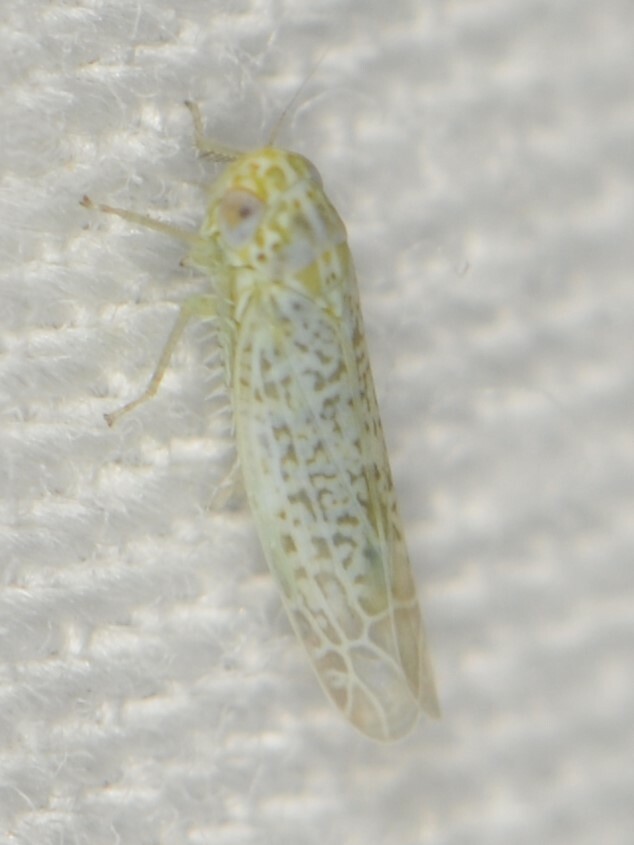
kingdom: Animalia
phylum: Arthropoda
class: Insecta
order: Hemiptera
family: Cicadellidae
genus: Hebata
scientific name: Hebata
